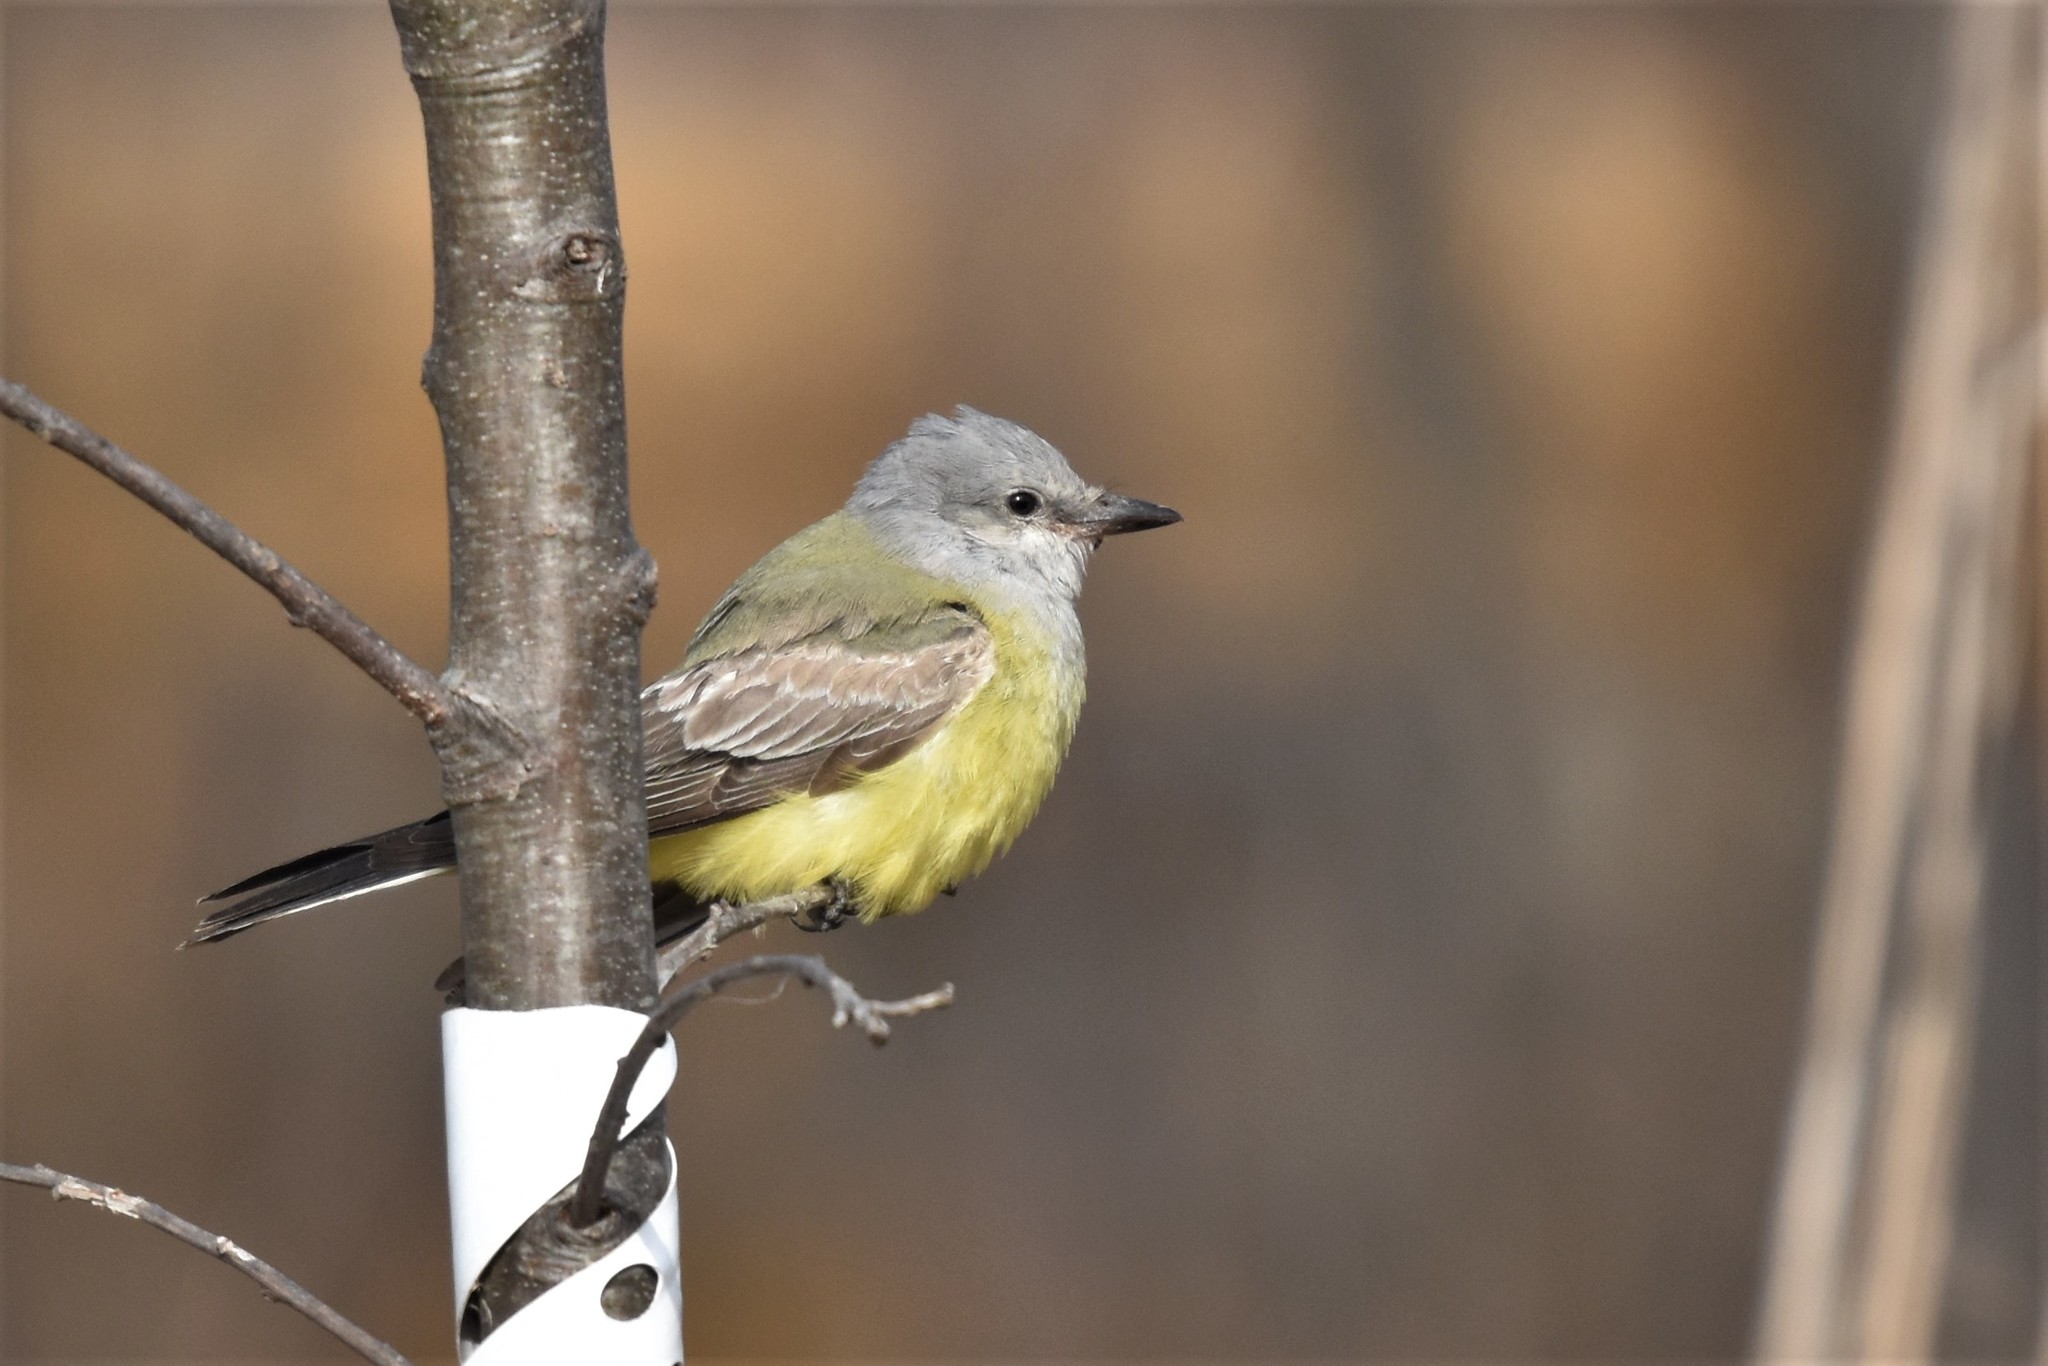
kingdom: Animalia
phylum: Chordata
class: Aves
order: Passeriformes
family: Tyrannidae
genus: Tyrannus
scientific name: Tyrannus verticalis
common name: Western kingbird
